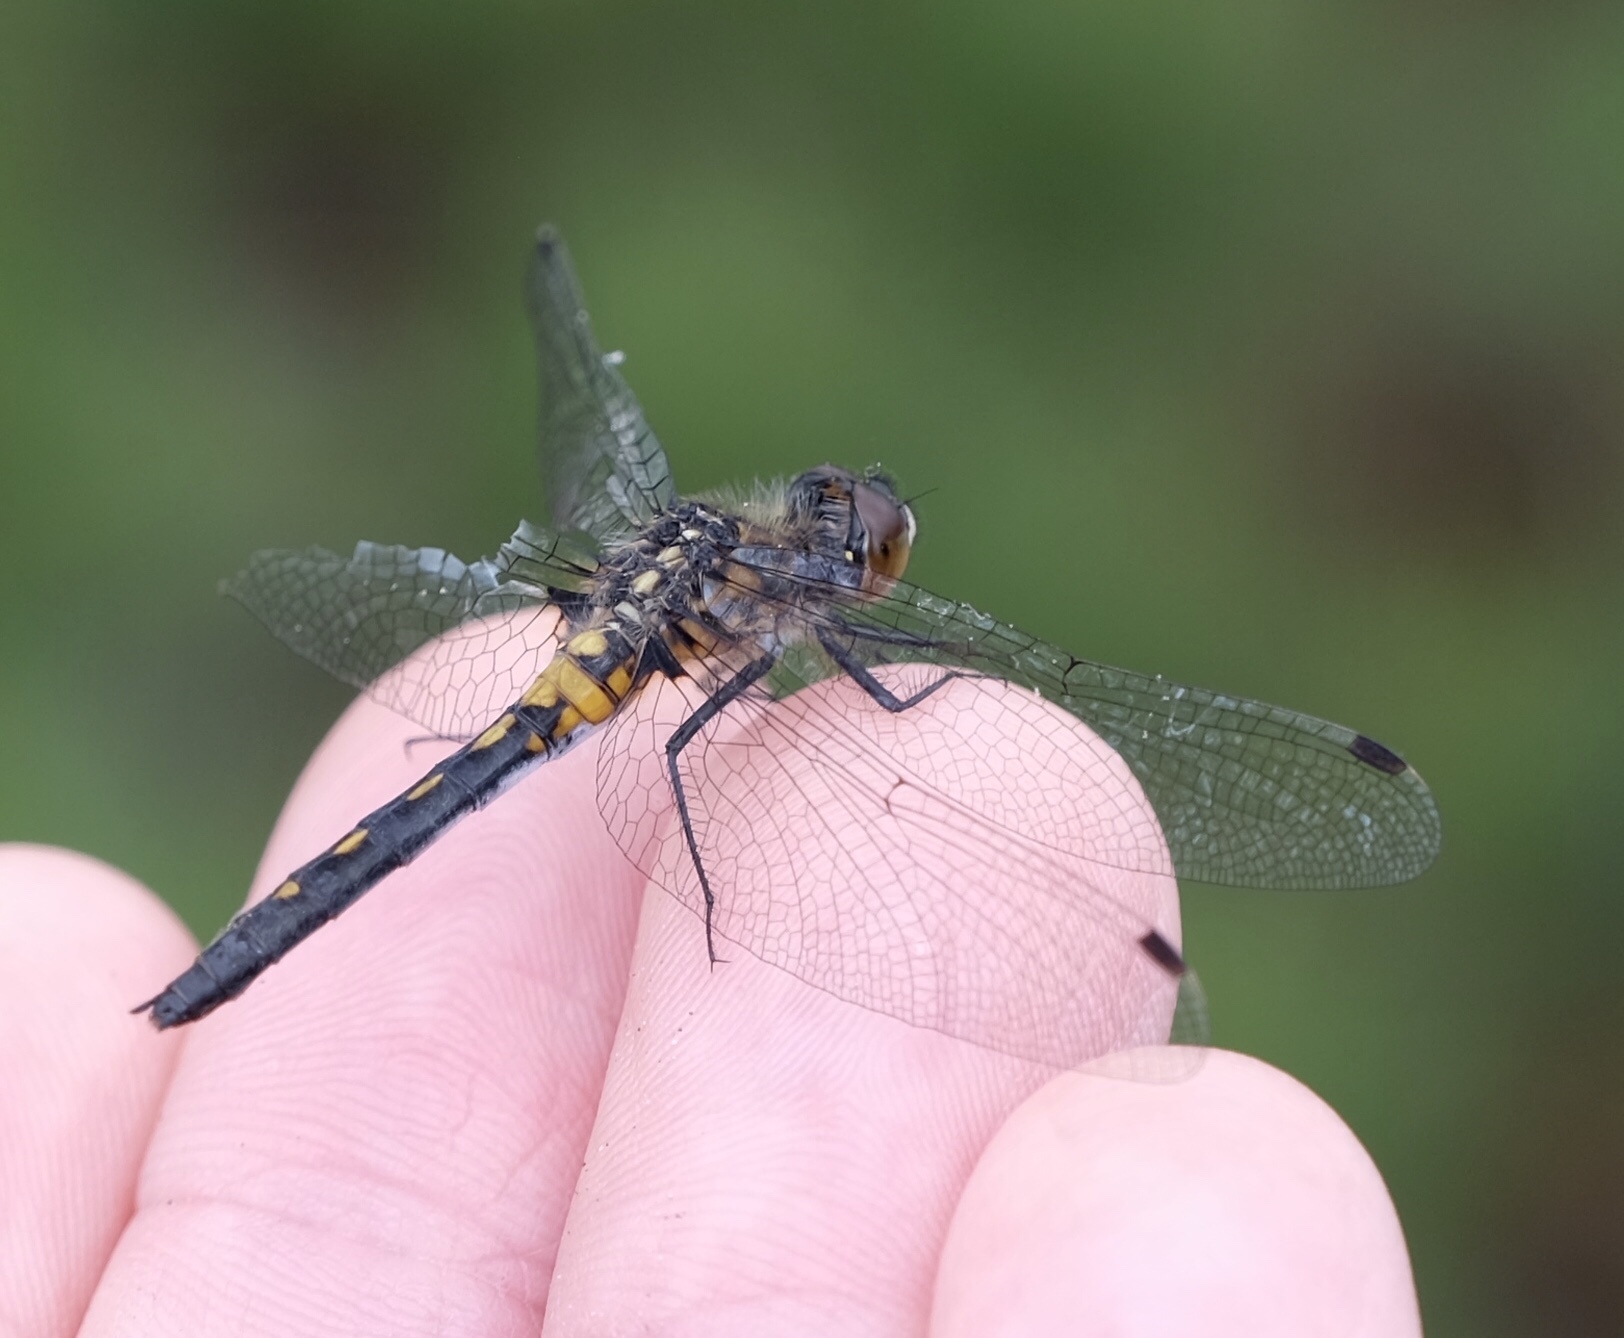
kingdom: Animalia
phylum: Arthropoda
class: Insecta
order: Odonata
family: Libellulidae
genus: Leucorrhinia
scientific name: Leucorrhinia frigida
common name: Frosted whiteface
